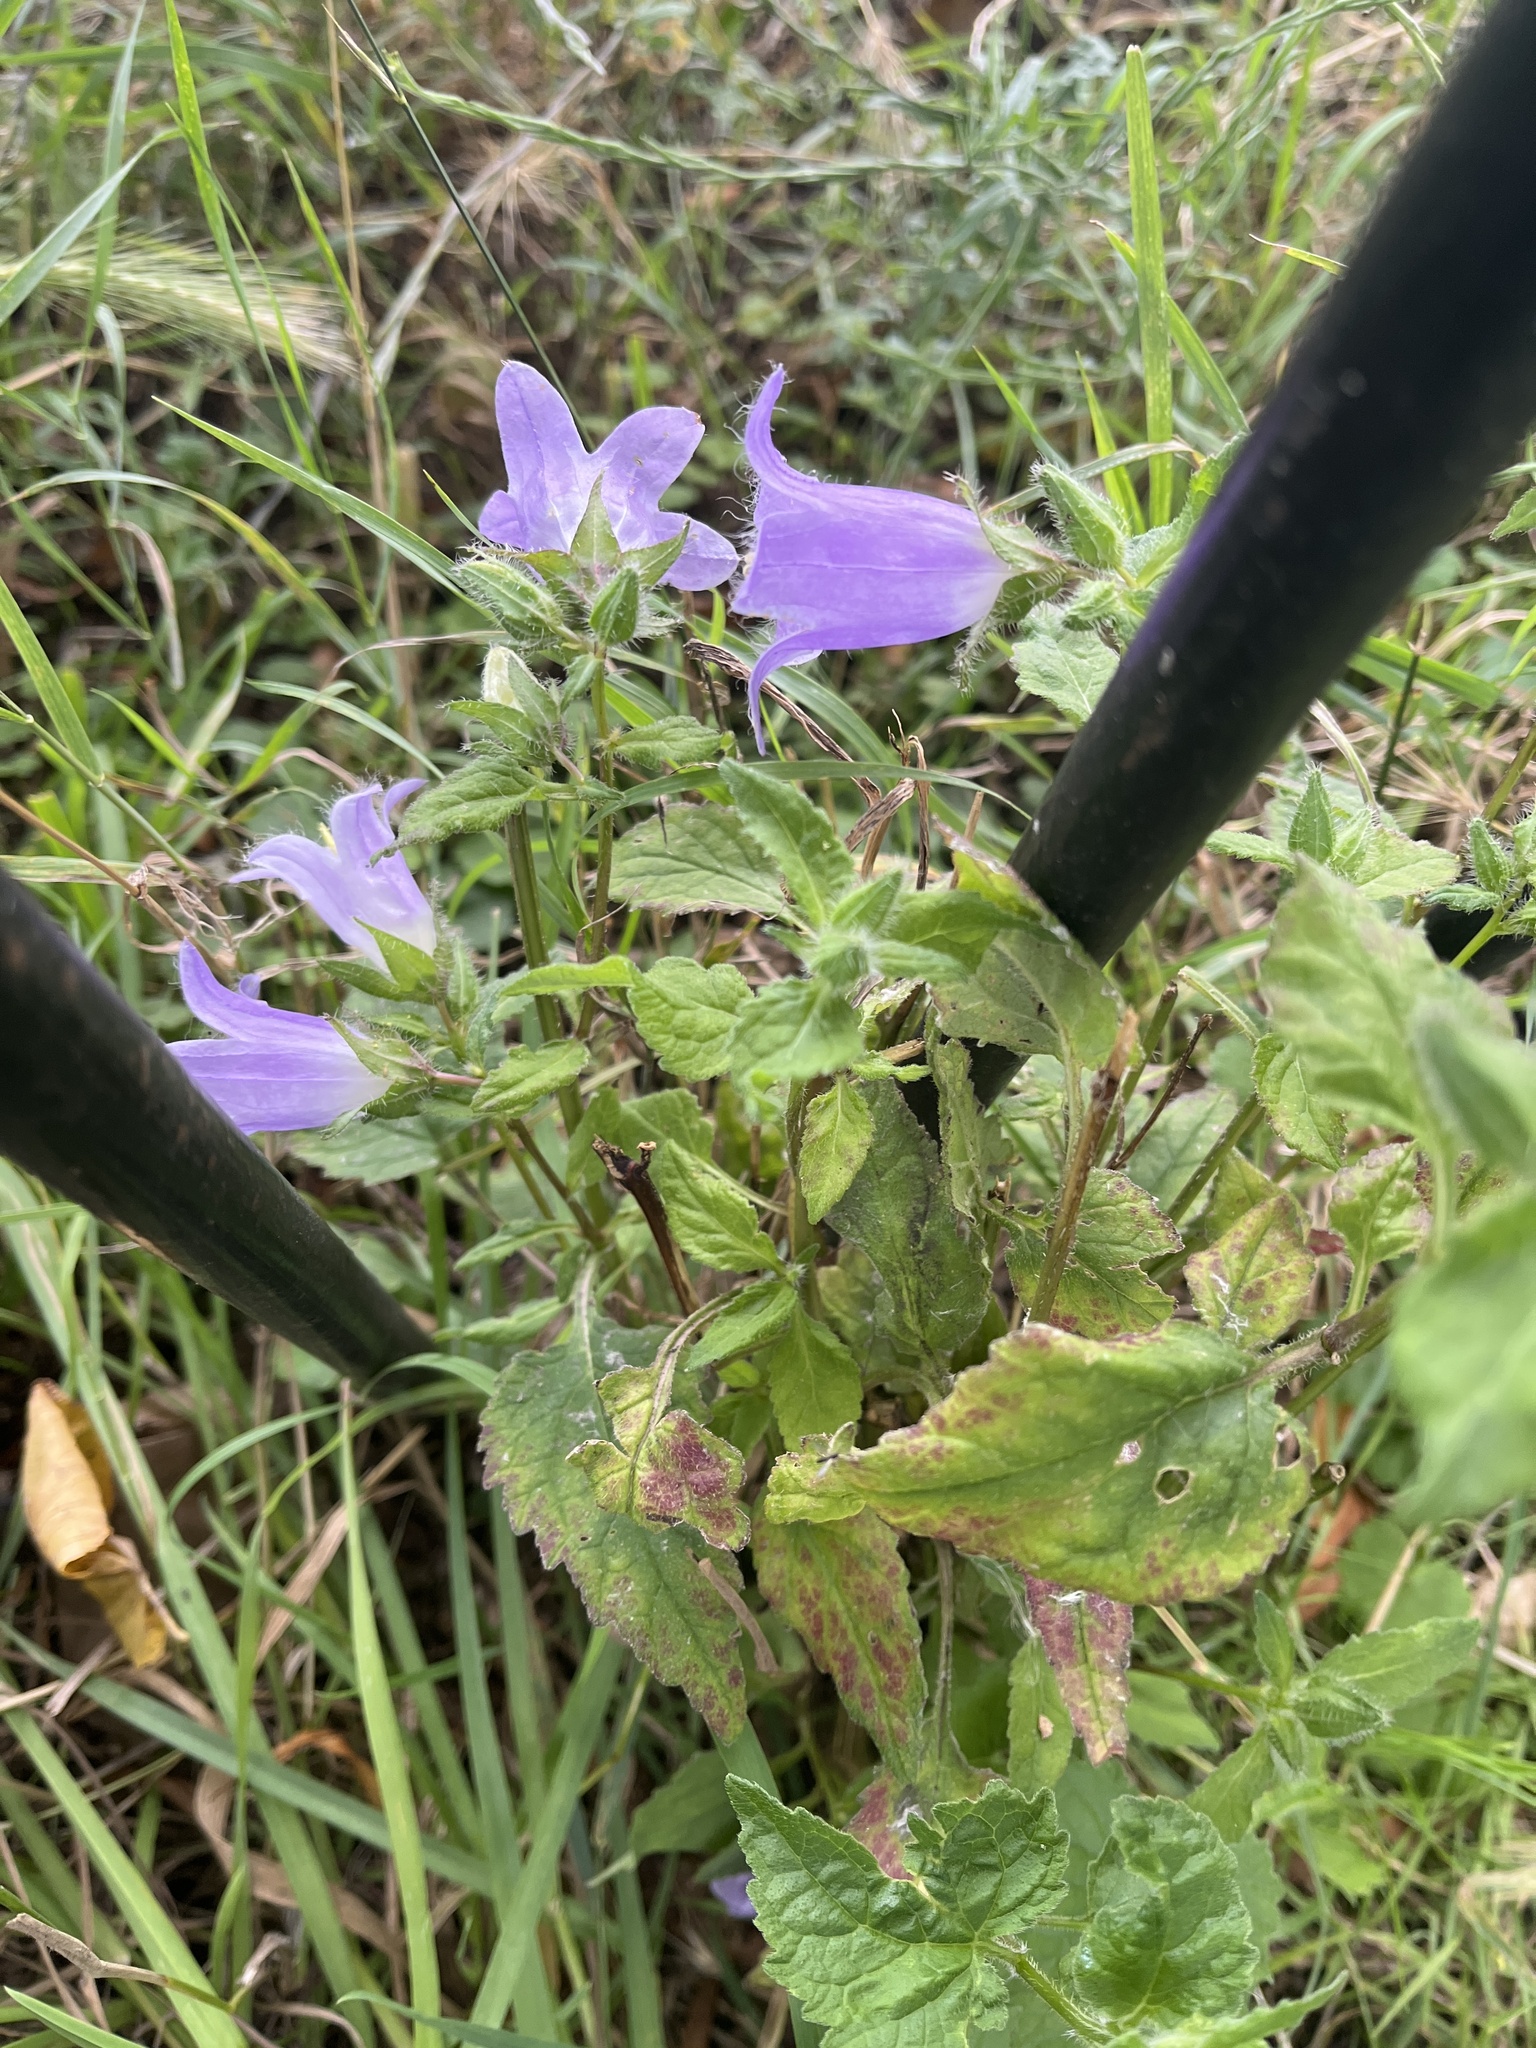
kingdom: Plantae
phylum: Tracheophyta
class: Magnoliopsida
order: Asterales
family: Campanulaceae
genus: Campanula
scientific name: Campanula trachelium
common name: Nettle-leaved bellflower
